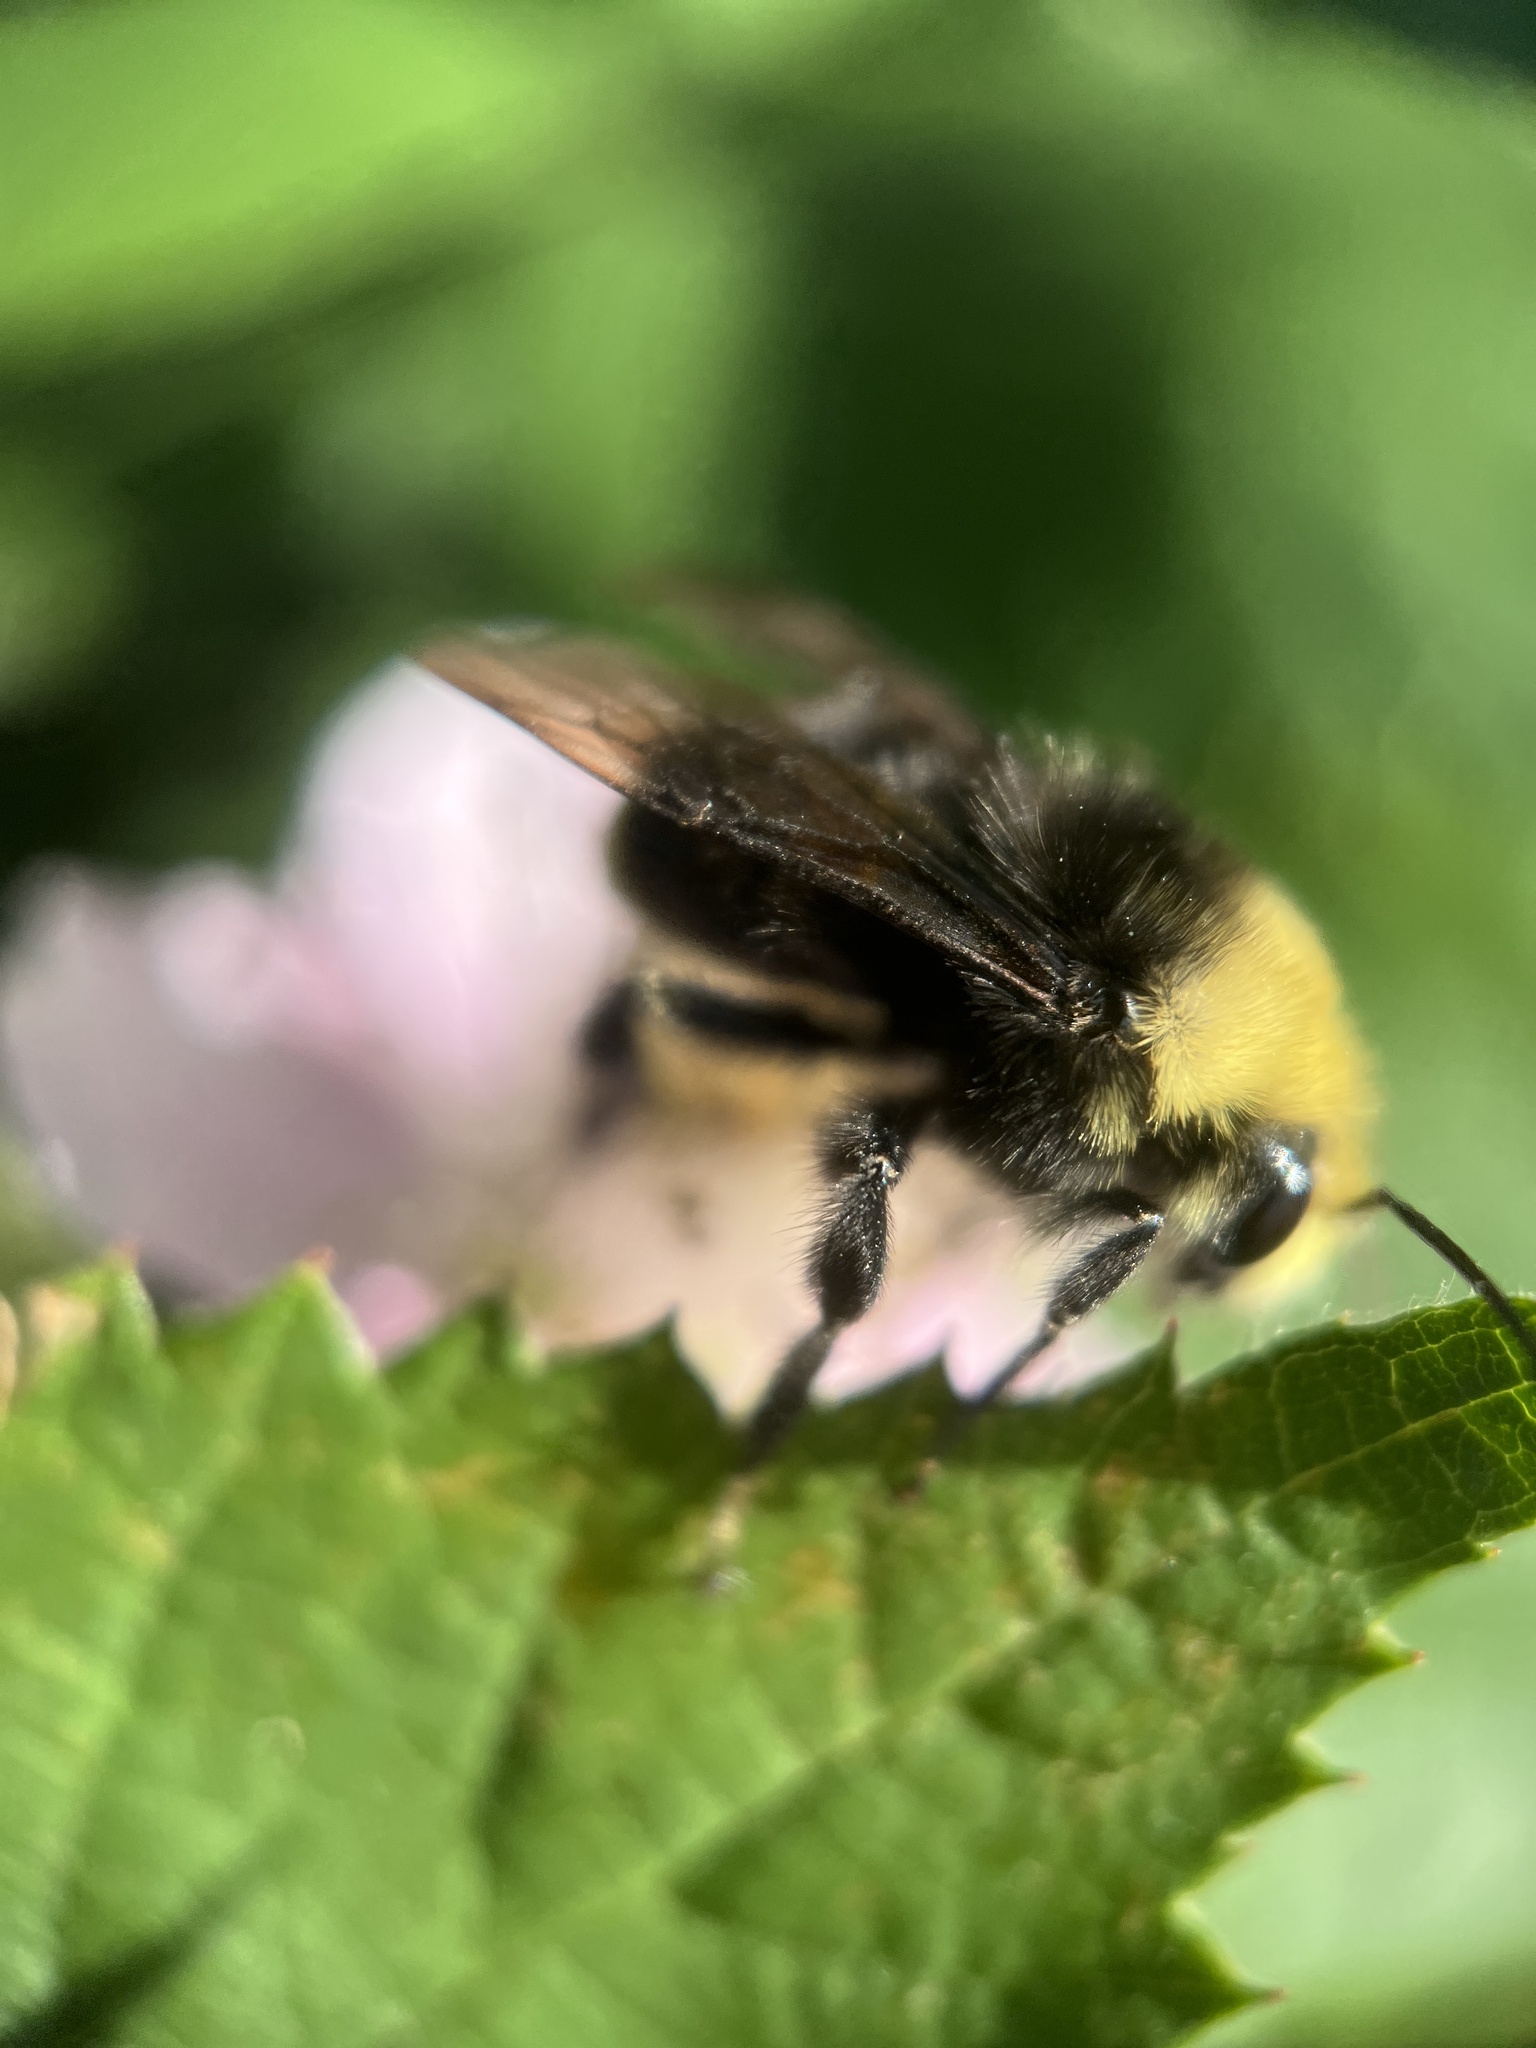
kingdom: Animalia
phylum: Arthropoda
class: Insecta
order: Hymenoptera
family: Apidae
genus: Bombus
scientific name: Bombus vosnesenskii
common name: Vosnesensky bumble bee
